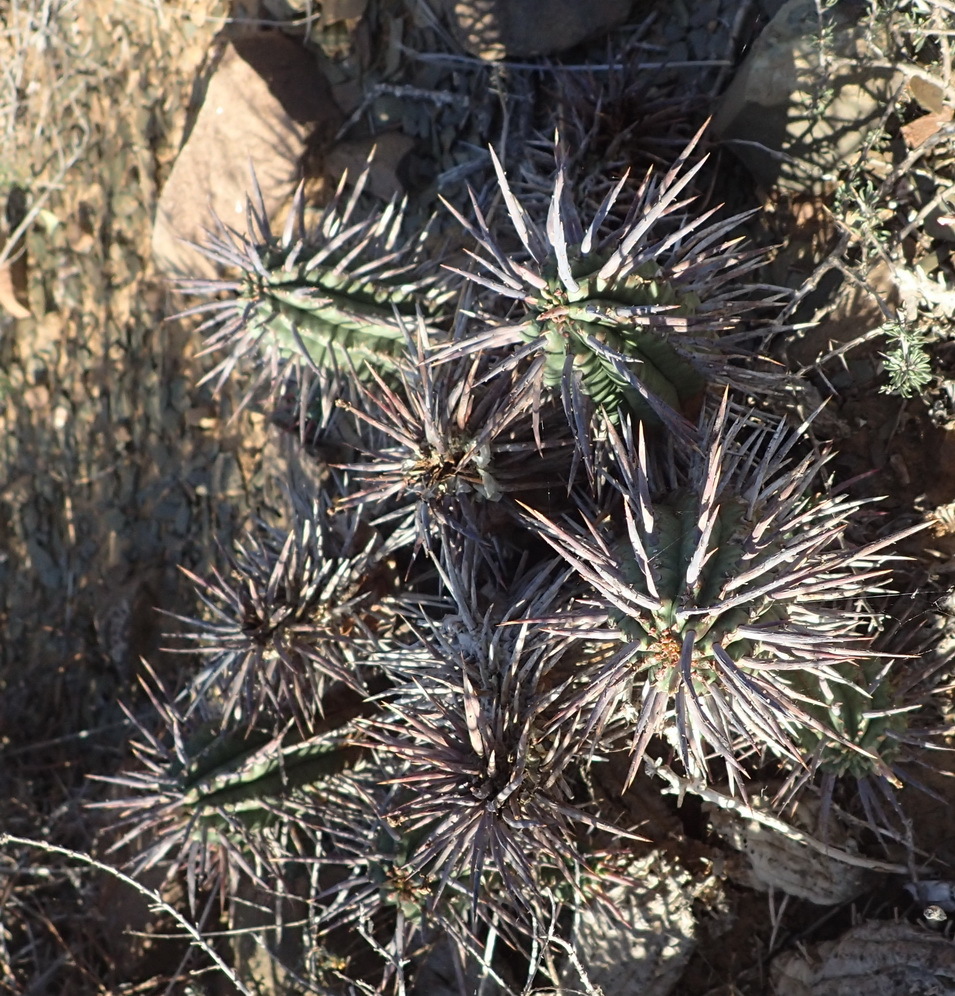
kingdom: Plantae
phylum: Tracheophyta
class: Magnoliopsida
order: Malpighiales
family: Euphorbiaceae
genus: Euphorbia
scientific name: Euphorbia ferox
